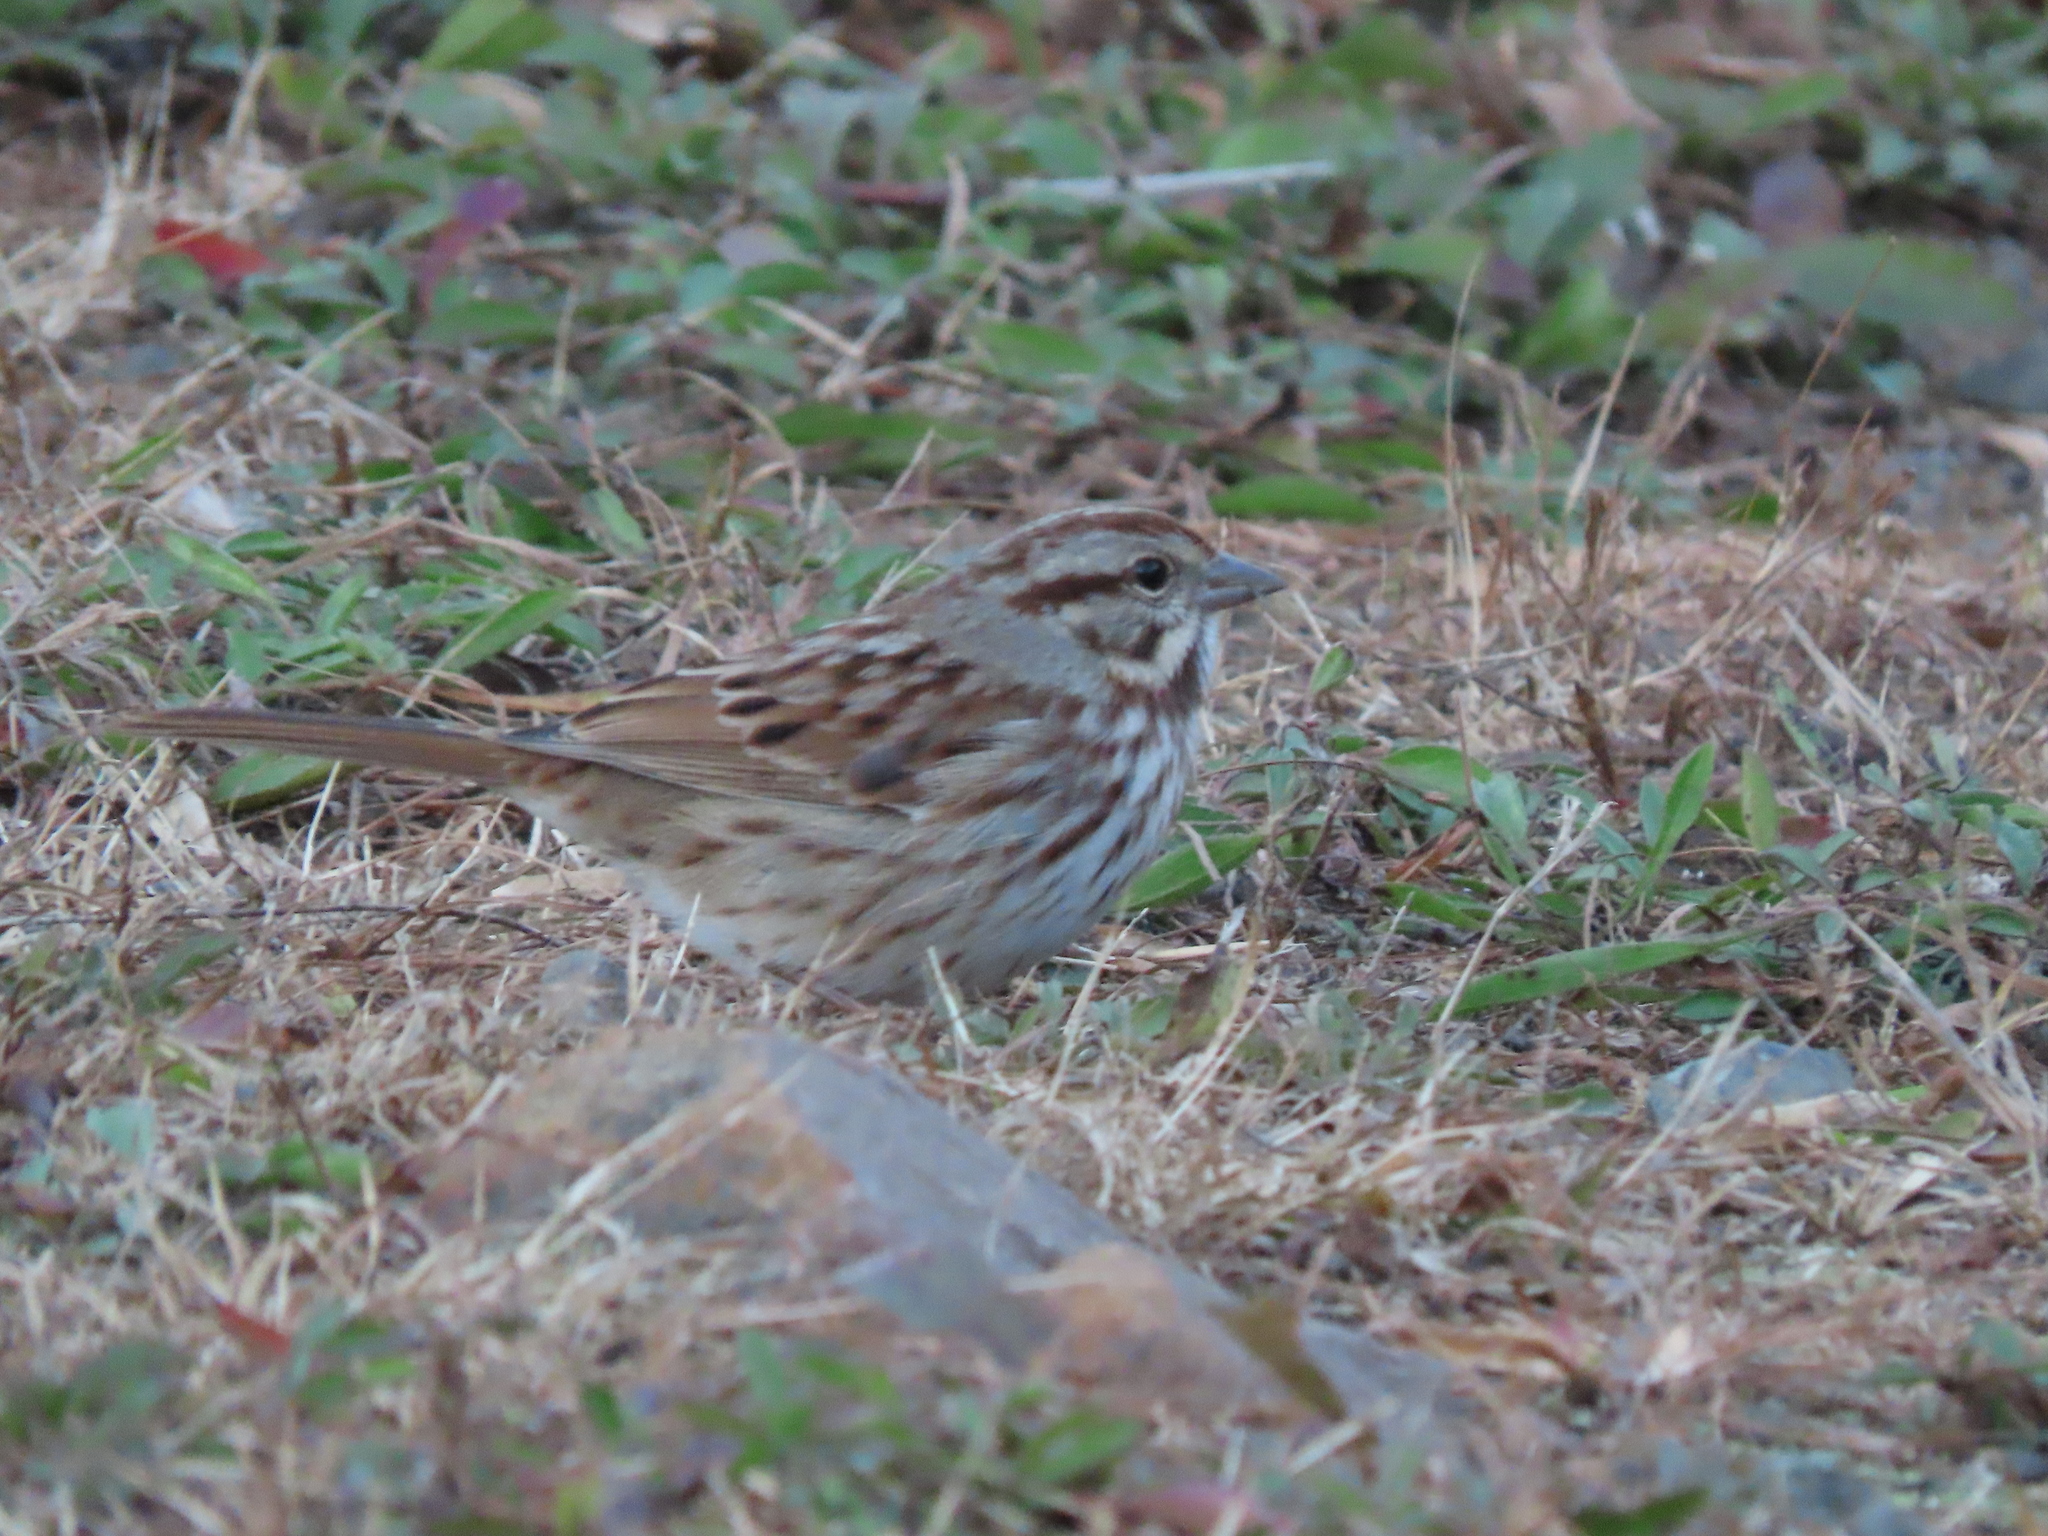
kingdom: Animalia
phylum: Chordata
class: Aves
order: Passeriformes
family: Passerellidae
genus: Melospiza
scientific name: Melospiza melodia
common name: Song sparrow
